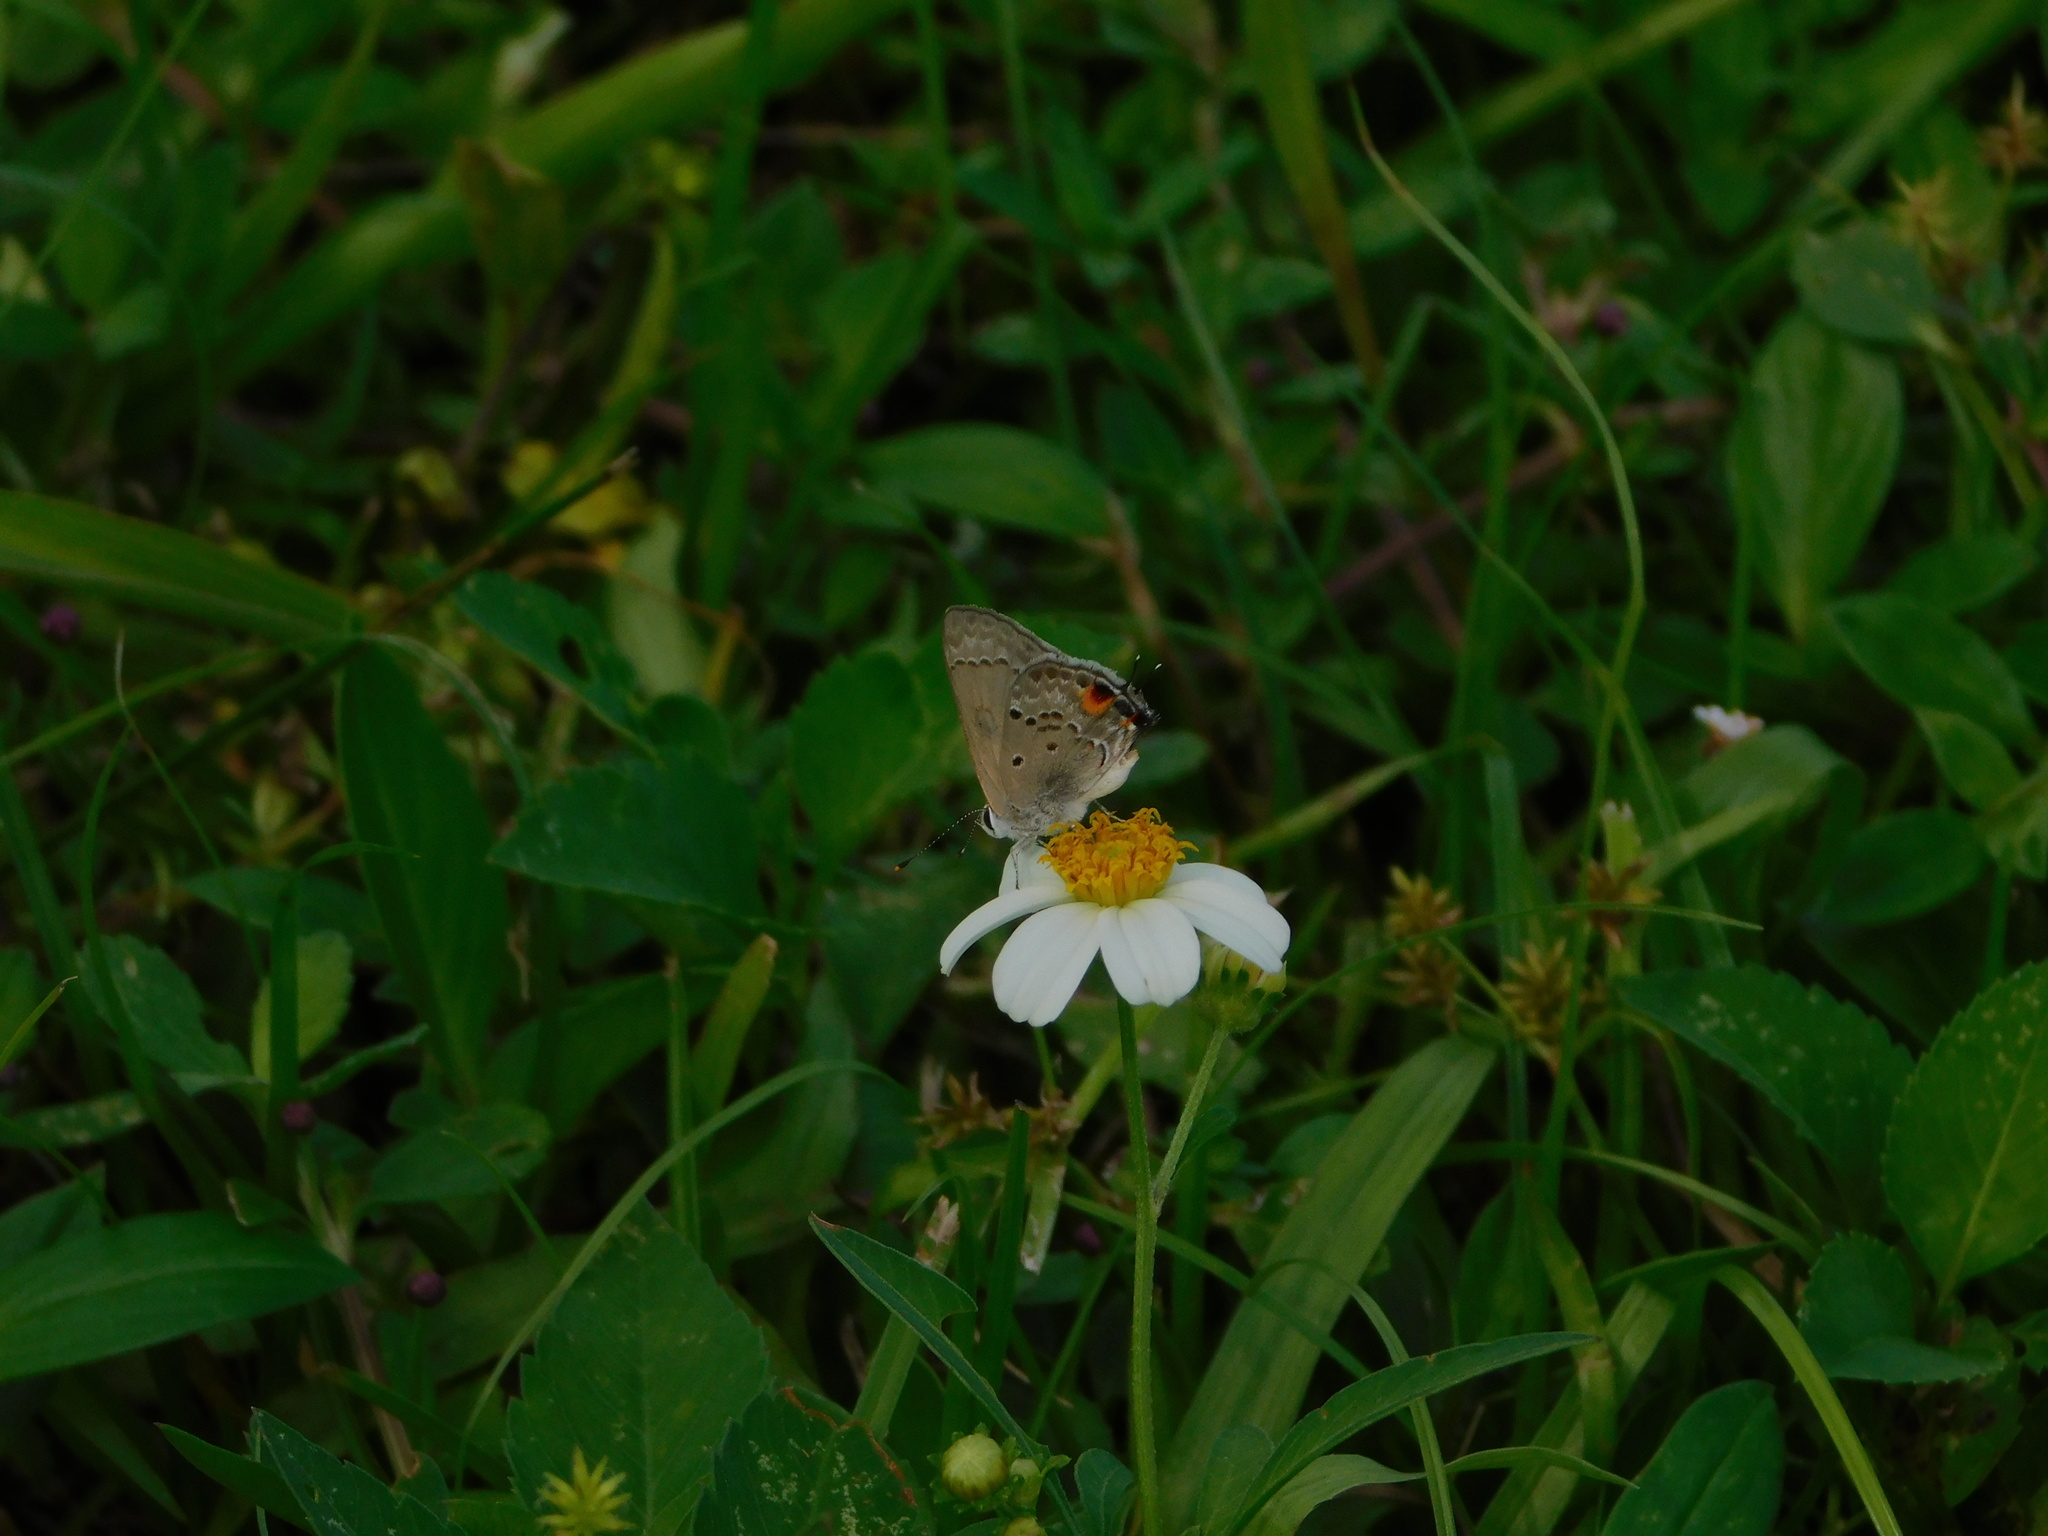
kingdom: Animalia
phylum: Arthropoda
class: Insecta
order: Lepidoptera
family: Lycaenidae
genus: Callicista
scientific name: Callicista columella
